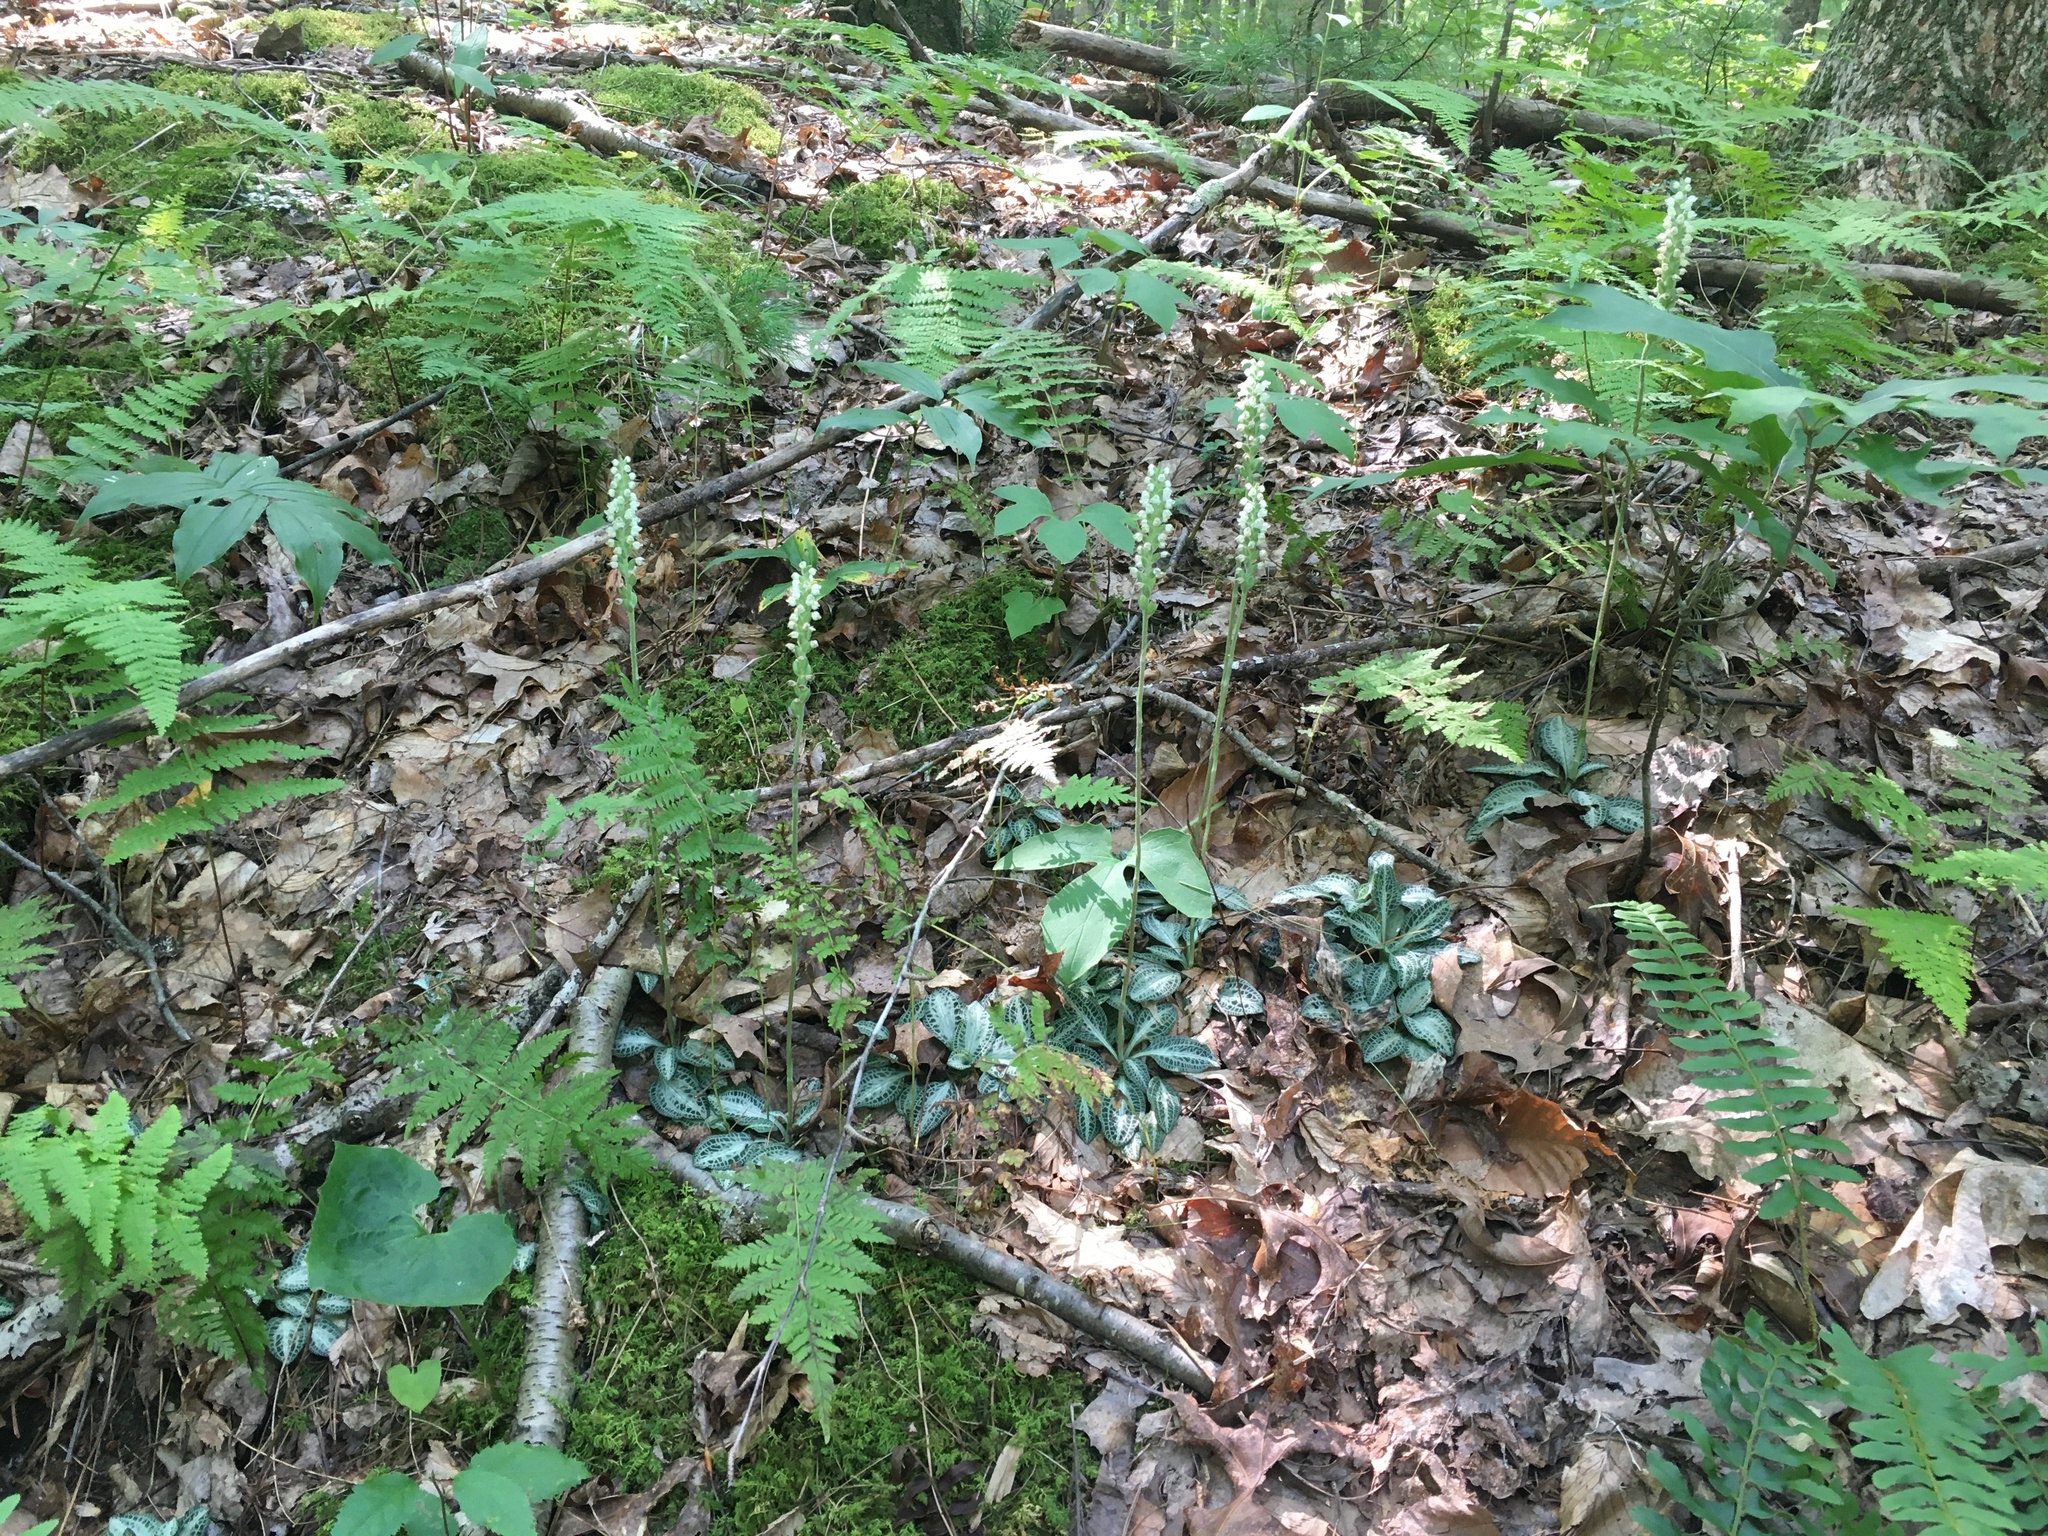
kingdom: Plantae
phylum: Tracheophyta
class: Liliopsida
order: Asparagales
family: Orchidaceae
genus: Goodyera
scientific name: Goodyera pubescens
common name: Downy rattlesnake-plantain
